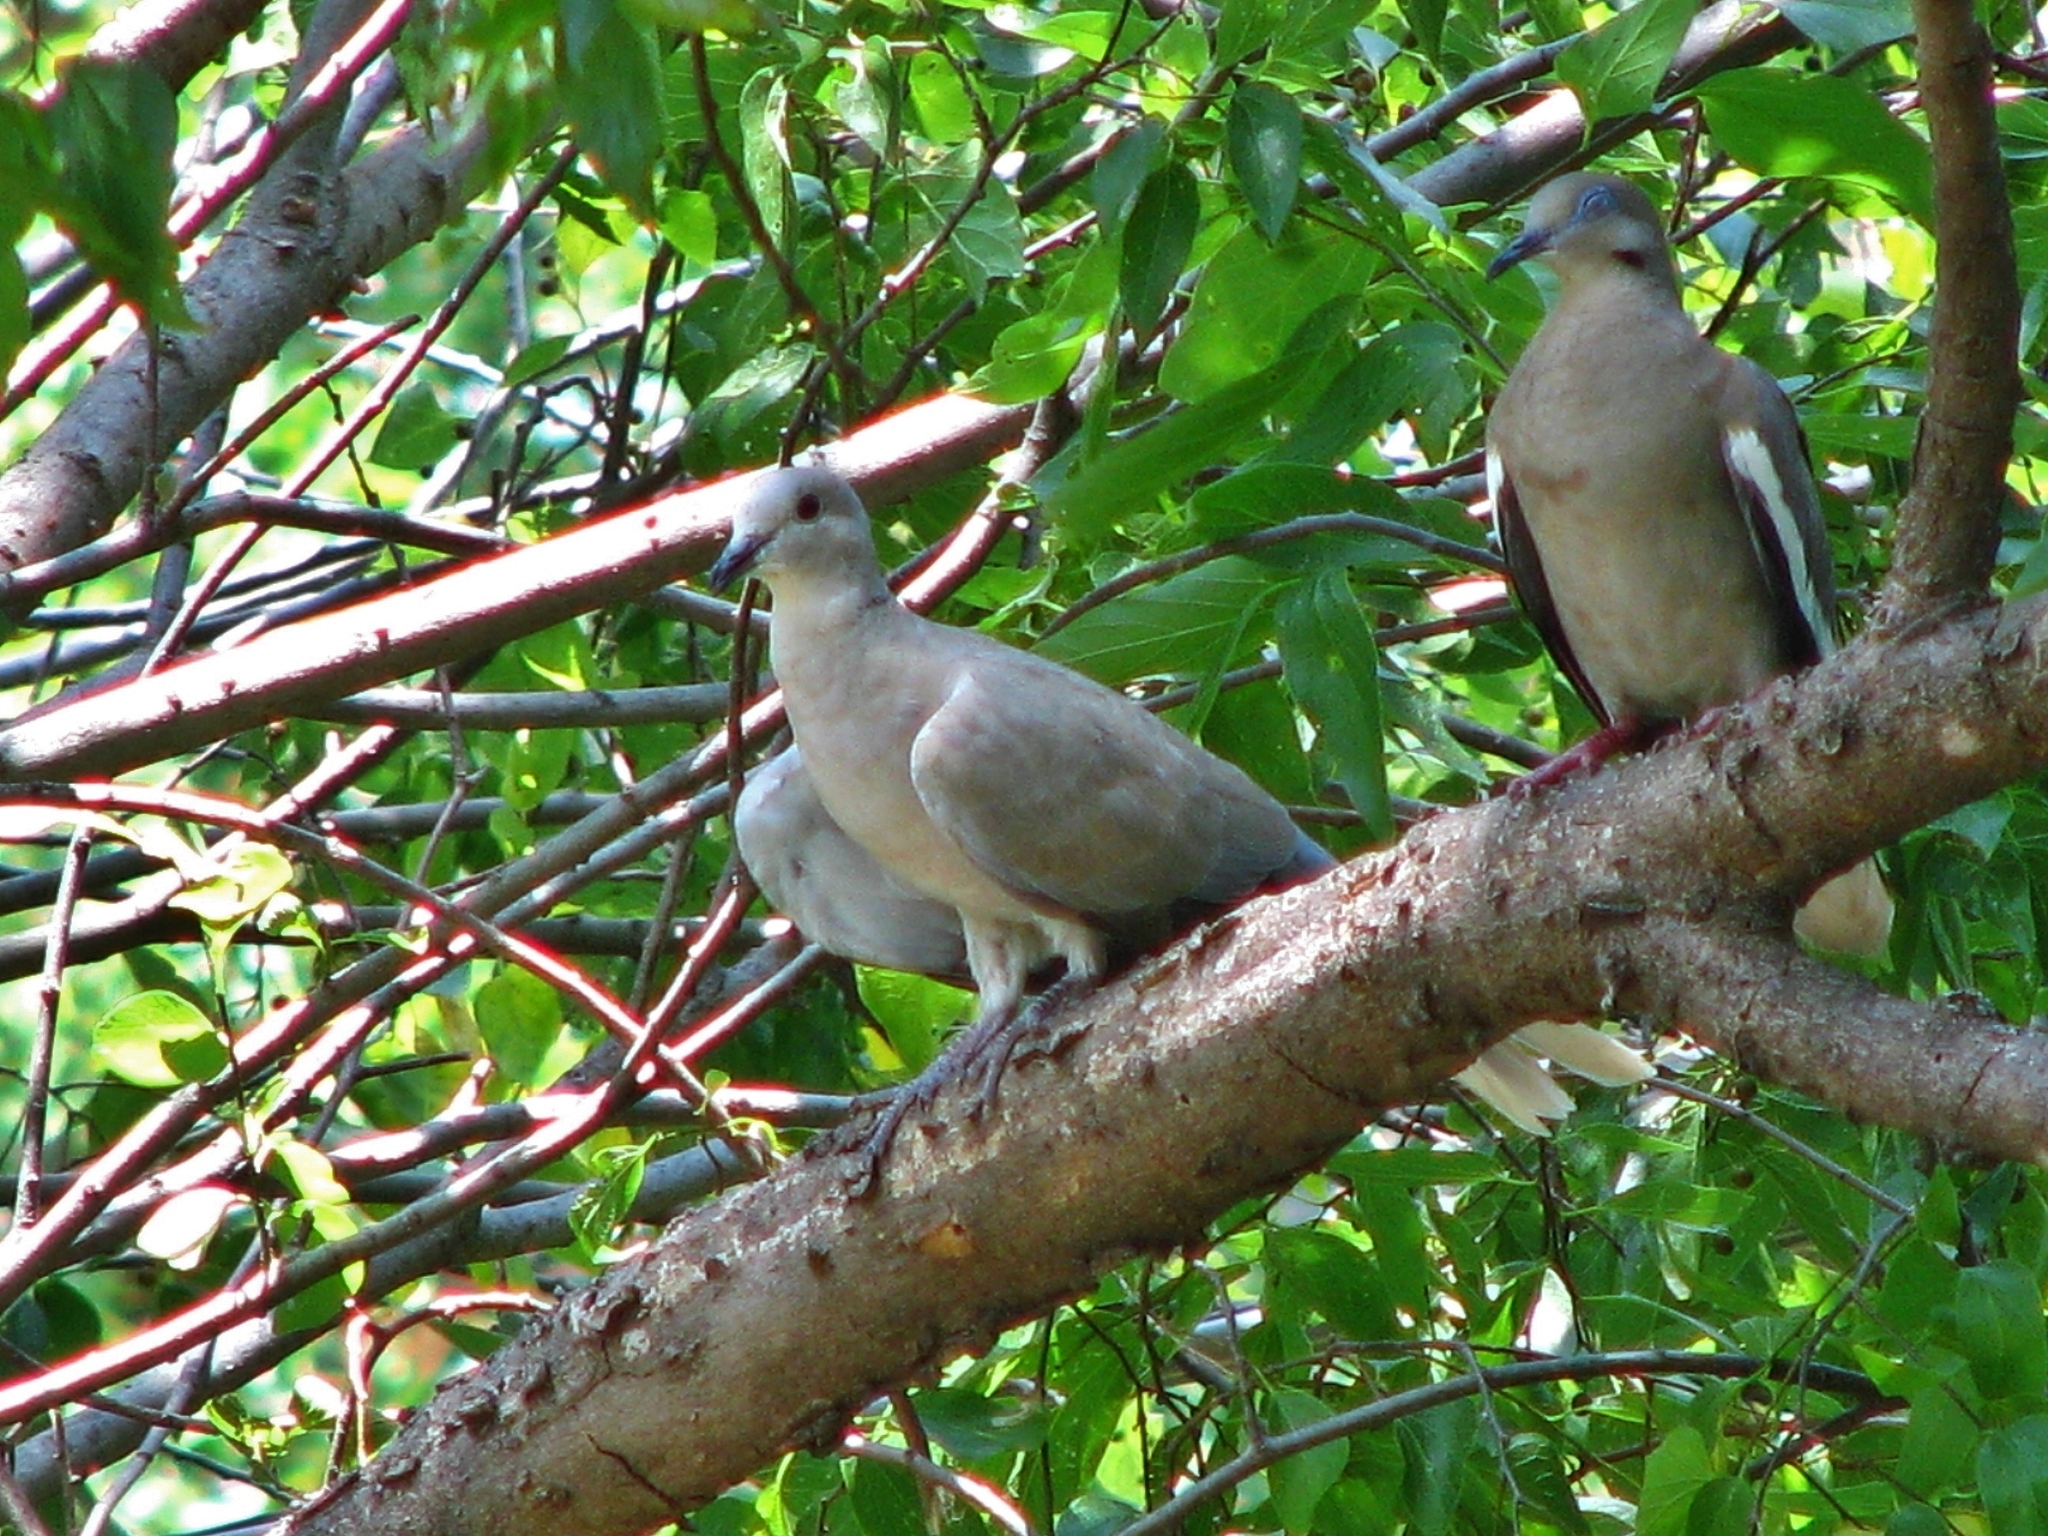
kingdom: Animalia
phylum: Chordata
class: Aves
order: Columbiformes
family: Columbidae
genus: Streptopelia
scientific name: Streptopelia decaocto
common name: Eurasian collared dove
